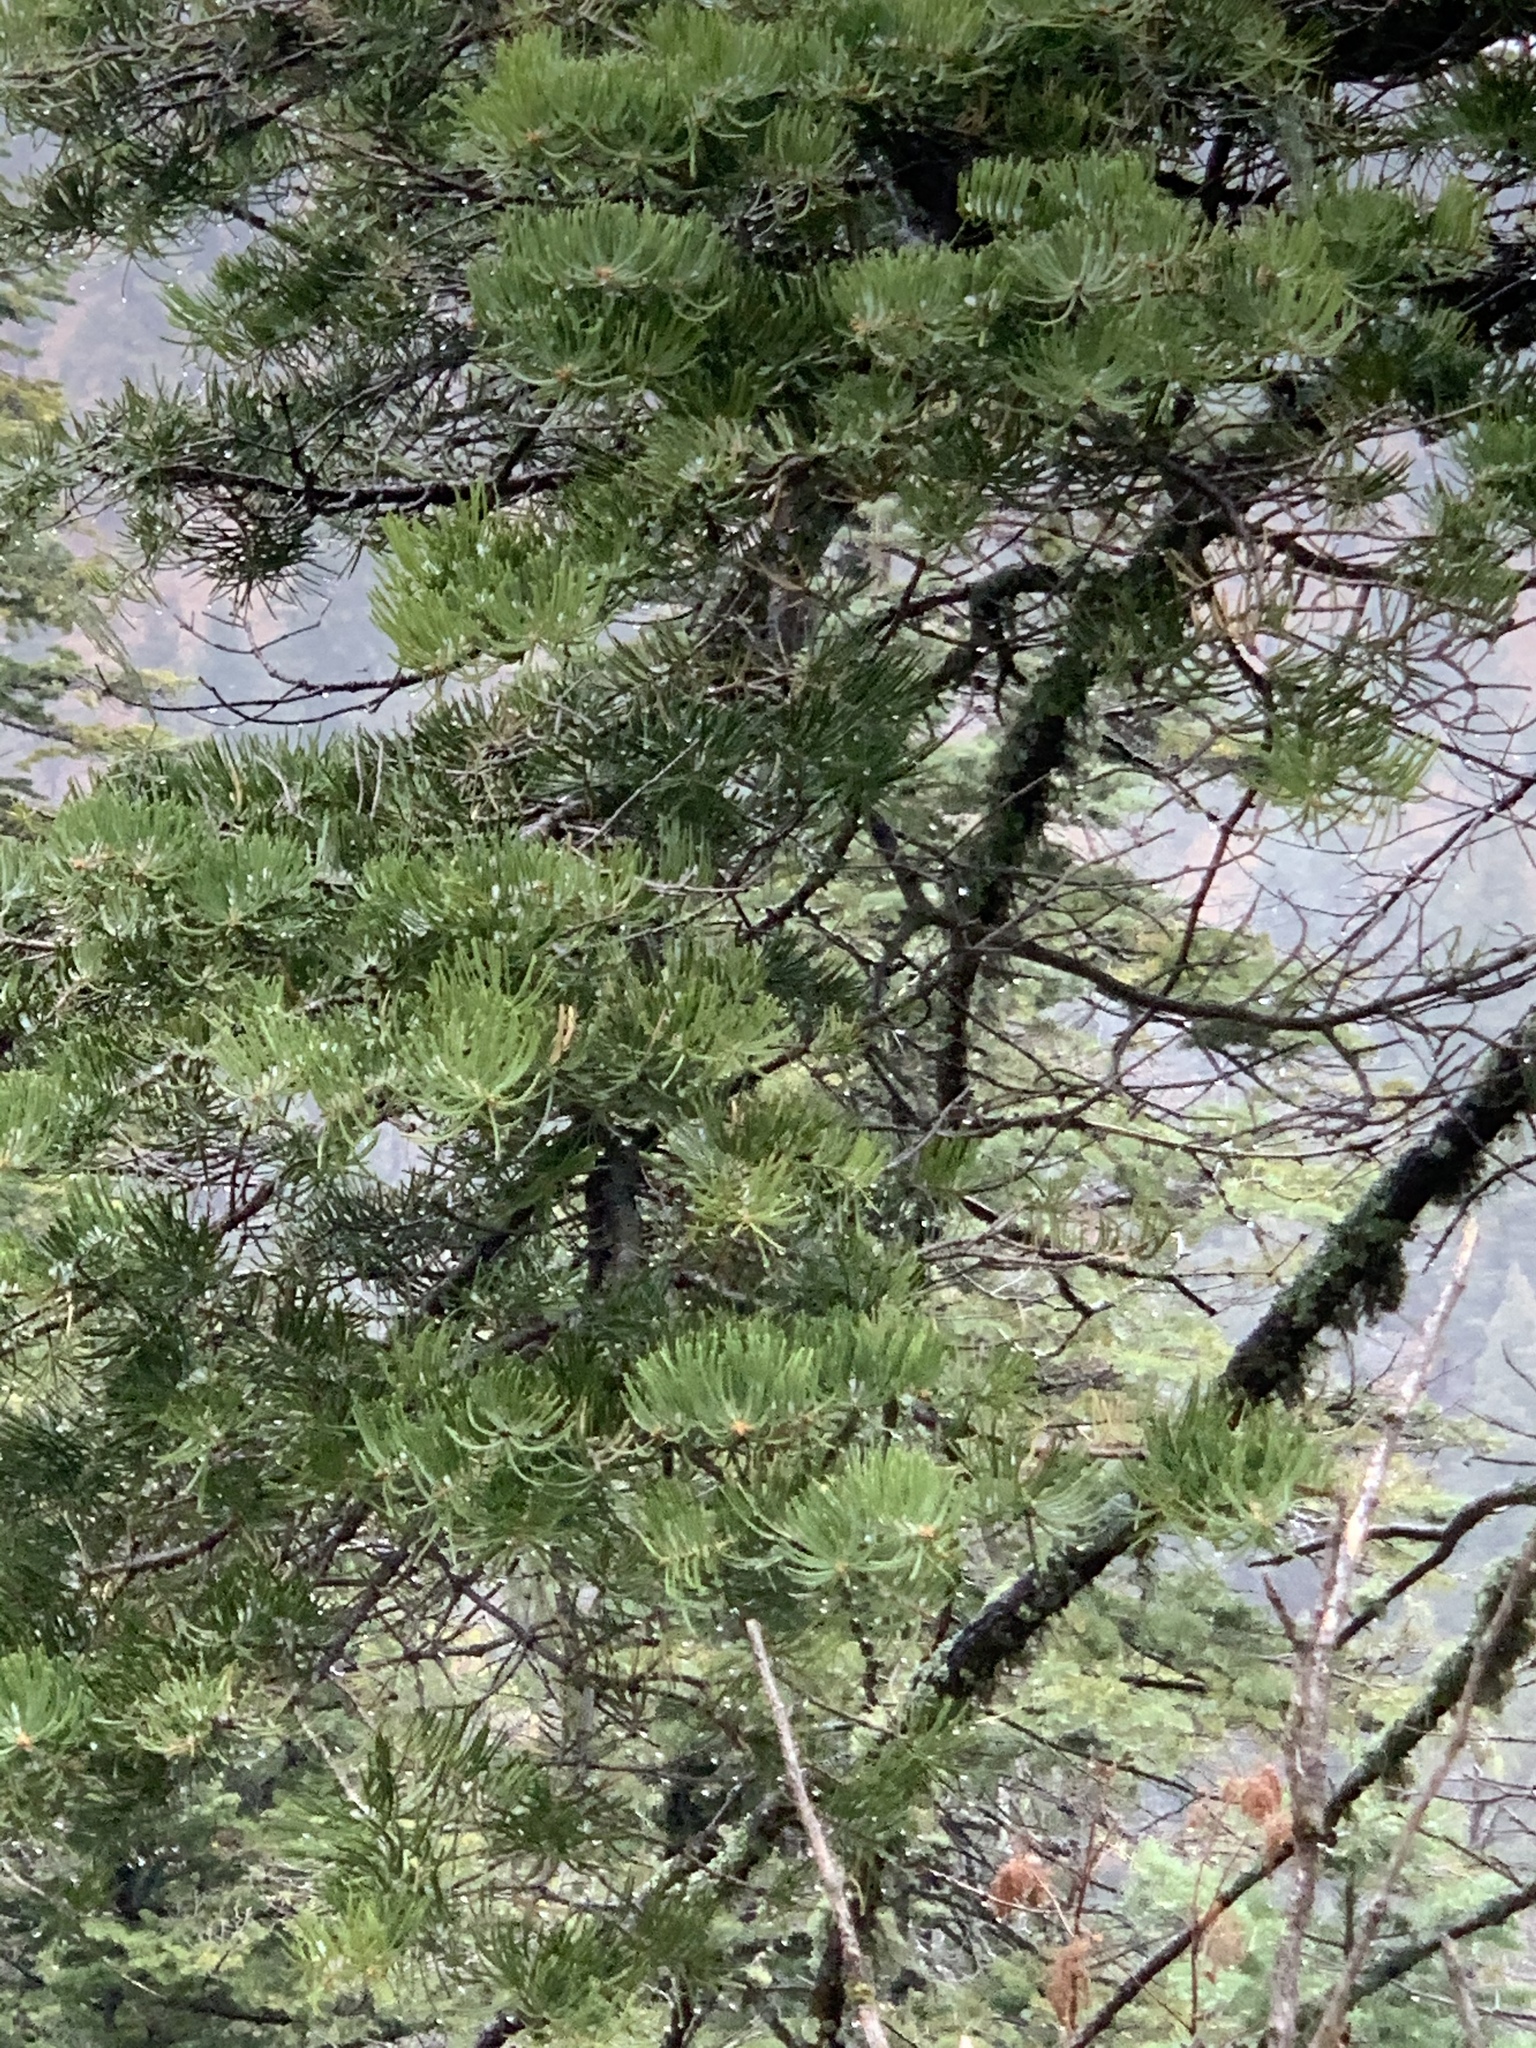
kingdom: Plantae
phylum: Tracheophyta
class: Pinopsida
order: Pinales
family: Pinaceae
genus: Abies
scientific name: Abies concolor
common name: Colorado fir
